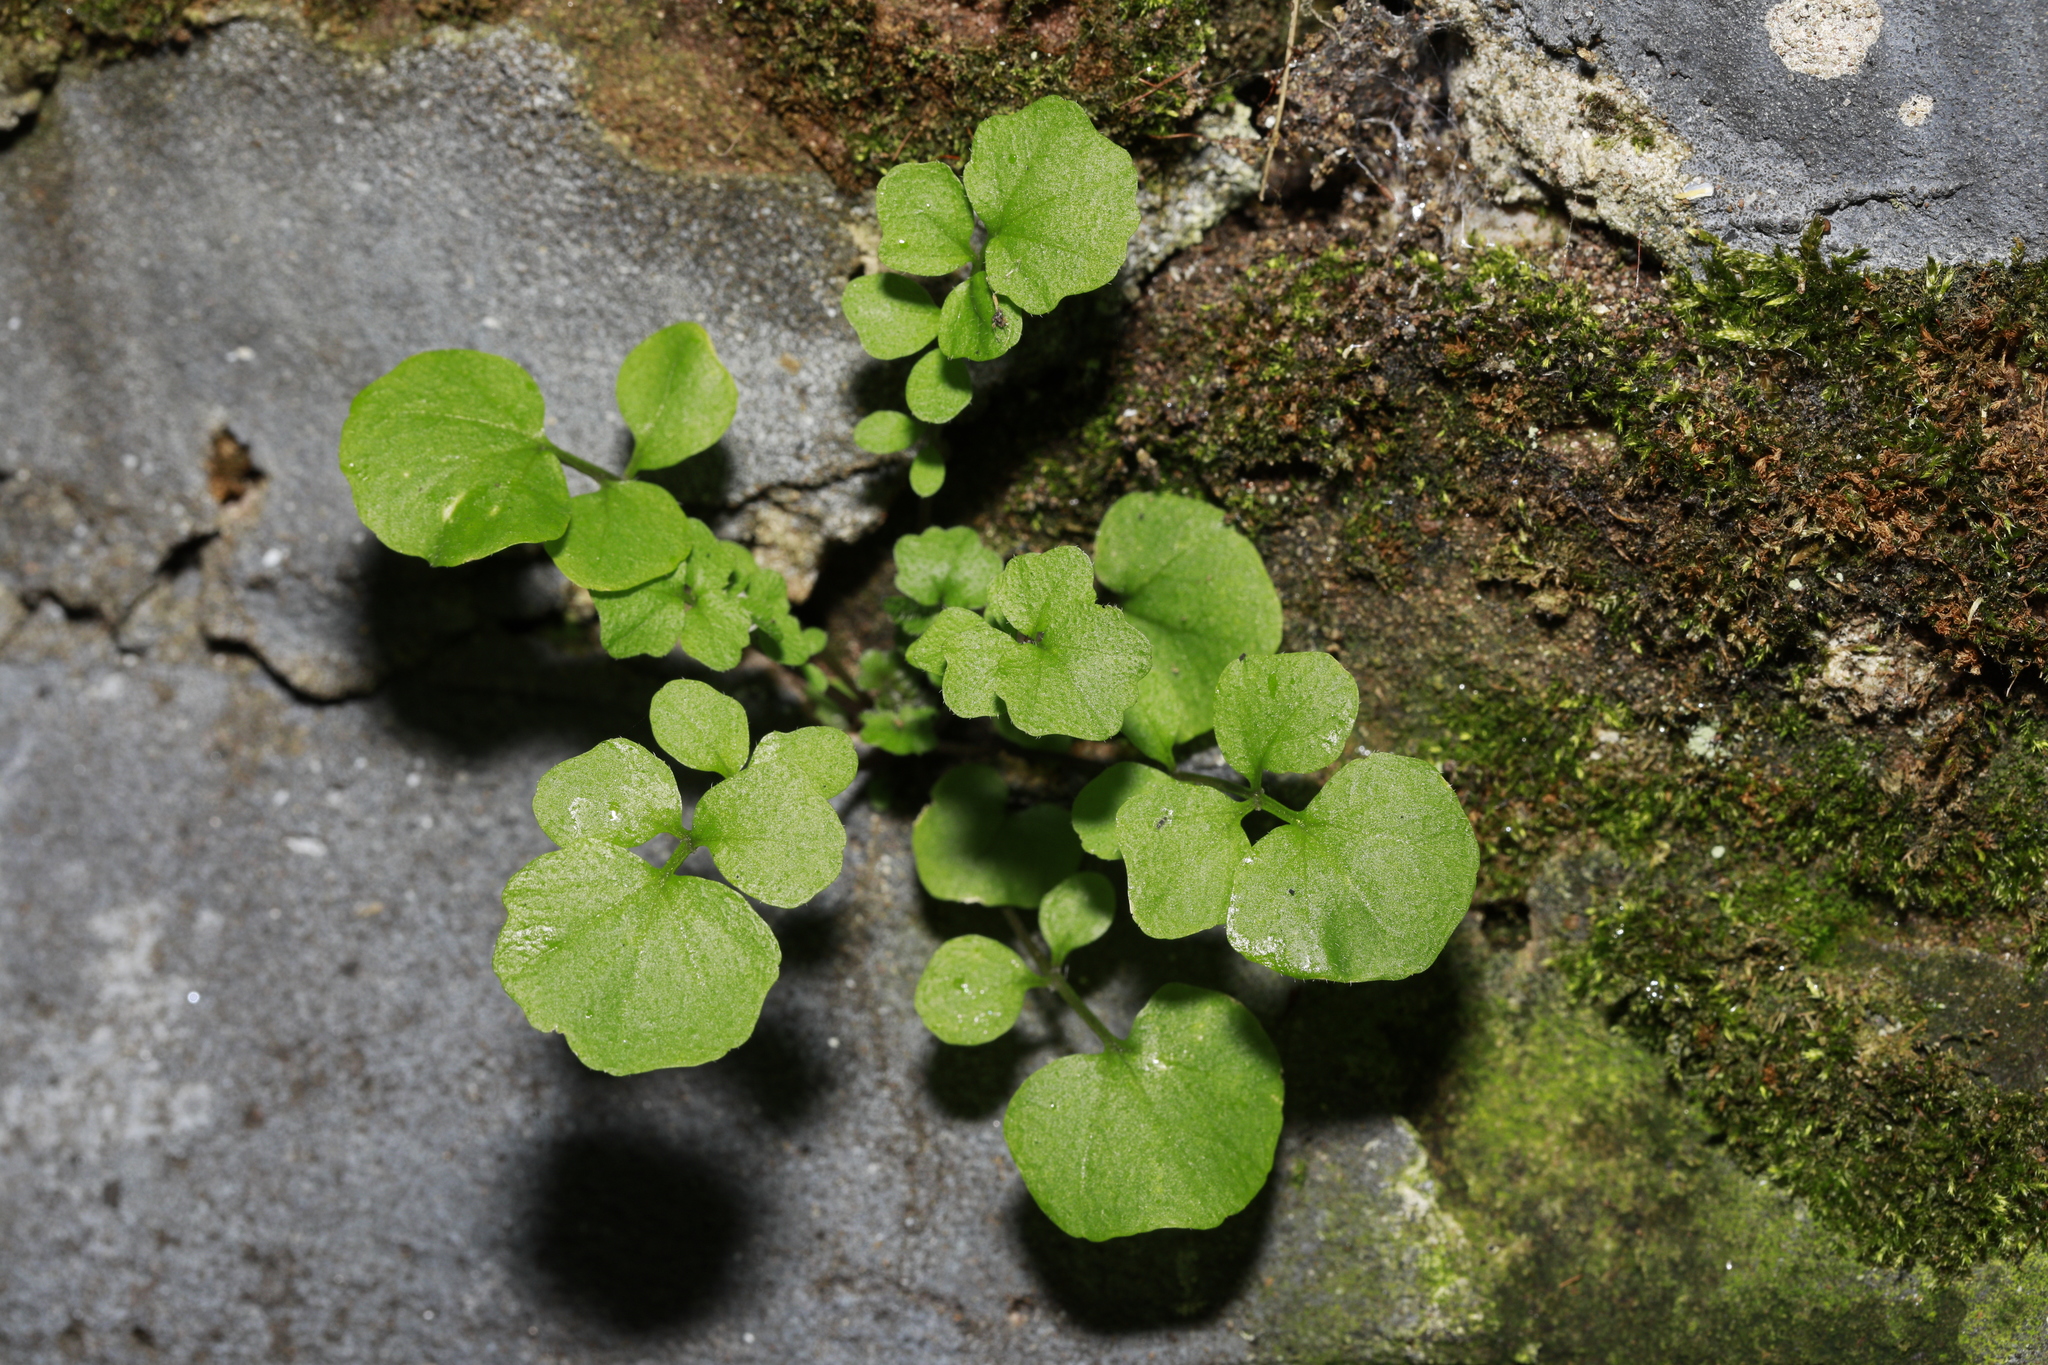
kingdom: Plantae
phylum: Tracheophyta
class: Magnoliopsida
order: Brassicales
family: Brassicaceae
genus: Cardamine
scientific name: Cardamine flexuosa
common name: Woodland bittercress
